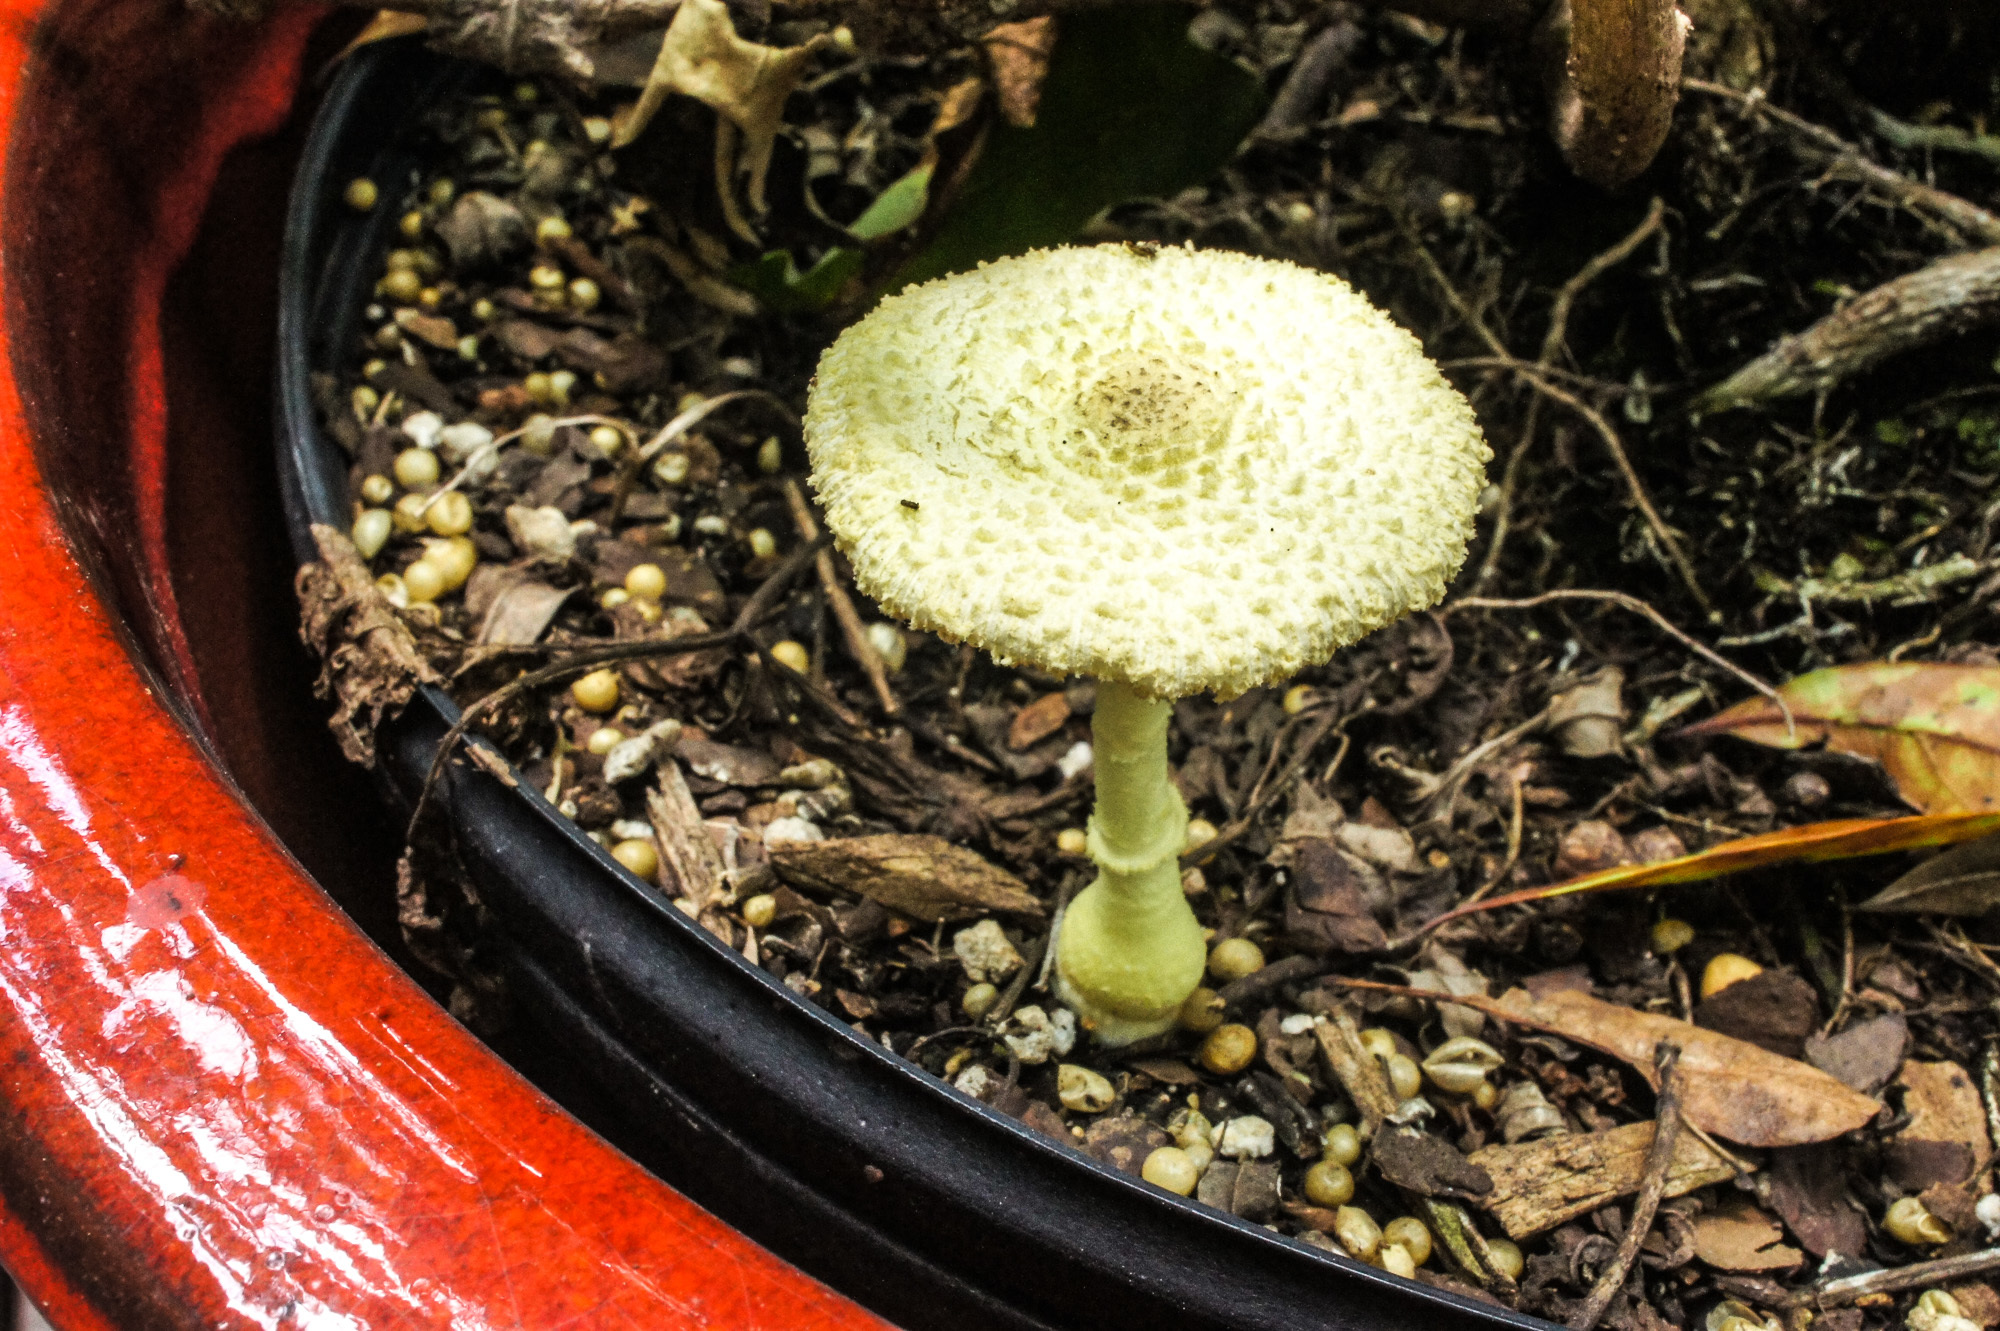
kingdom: Fungi
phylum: Basidiomycota
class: Agaricomycetes
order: Agaricales
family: Agaricaceae
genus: Leucocoprinus
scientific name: Leucocoprinus birnbaumii
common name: Plantpot dapperling
